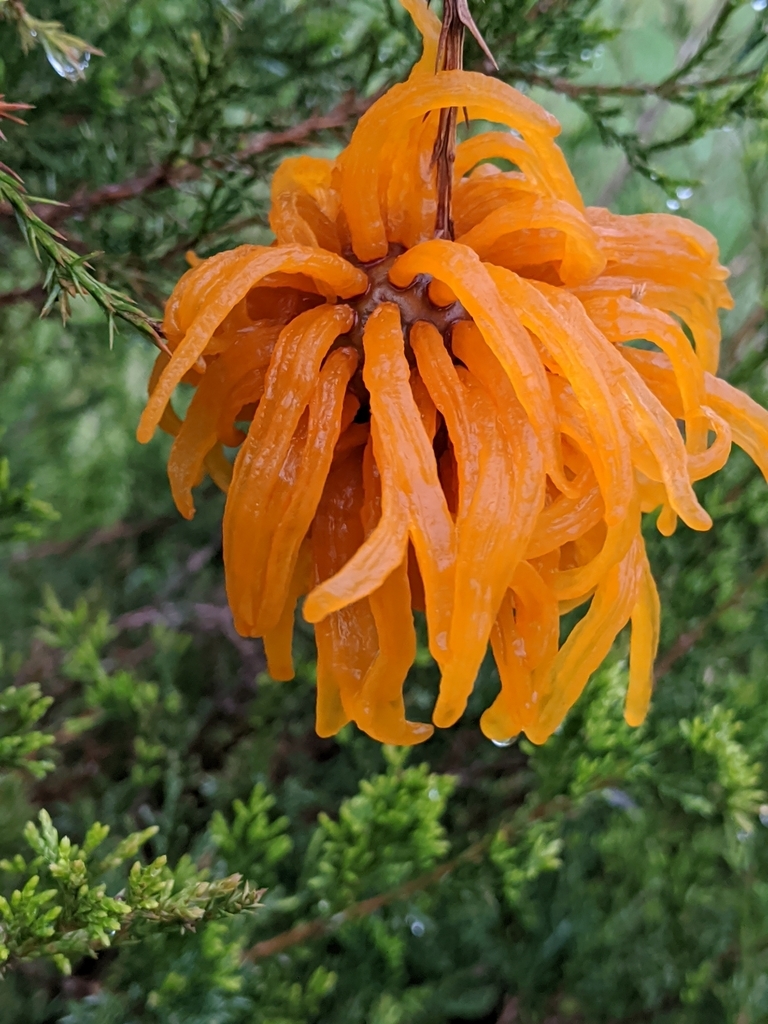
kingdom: Fungi
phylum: Basidiomycota
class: Pucciniomycetes
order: Pucciniales
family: Gymnosporangiaceae
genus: Gymnosporangium
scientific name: Gymnosporangium juniperi-virginianae
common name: Juniper-apple rust
